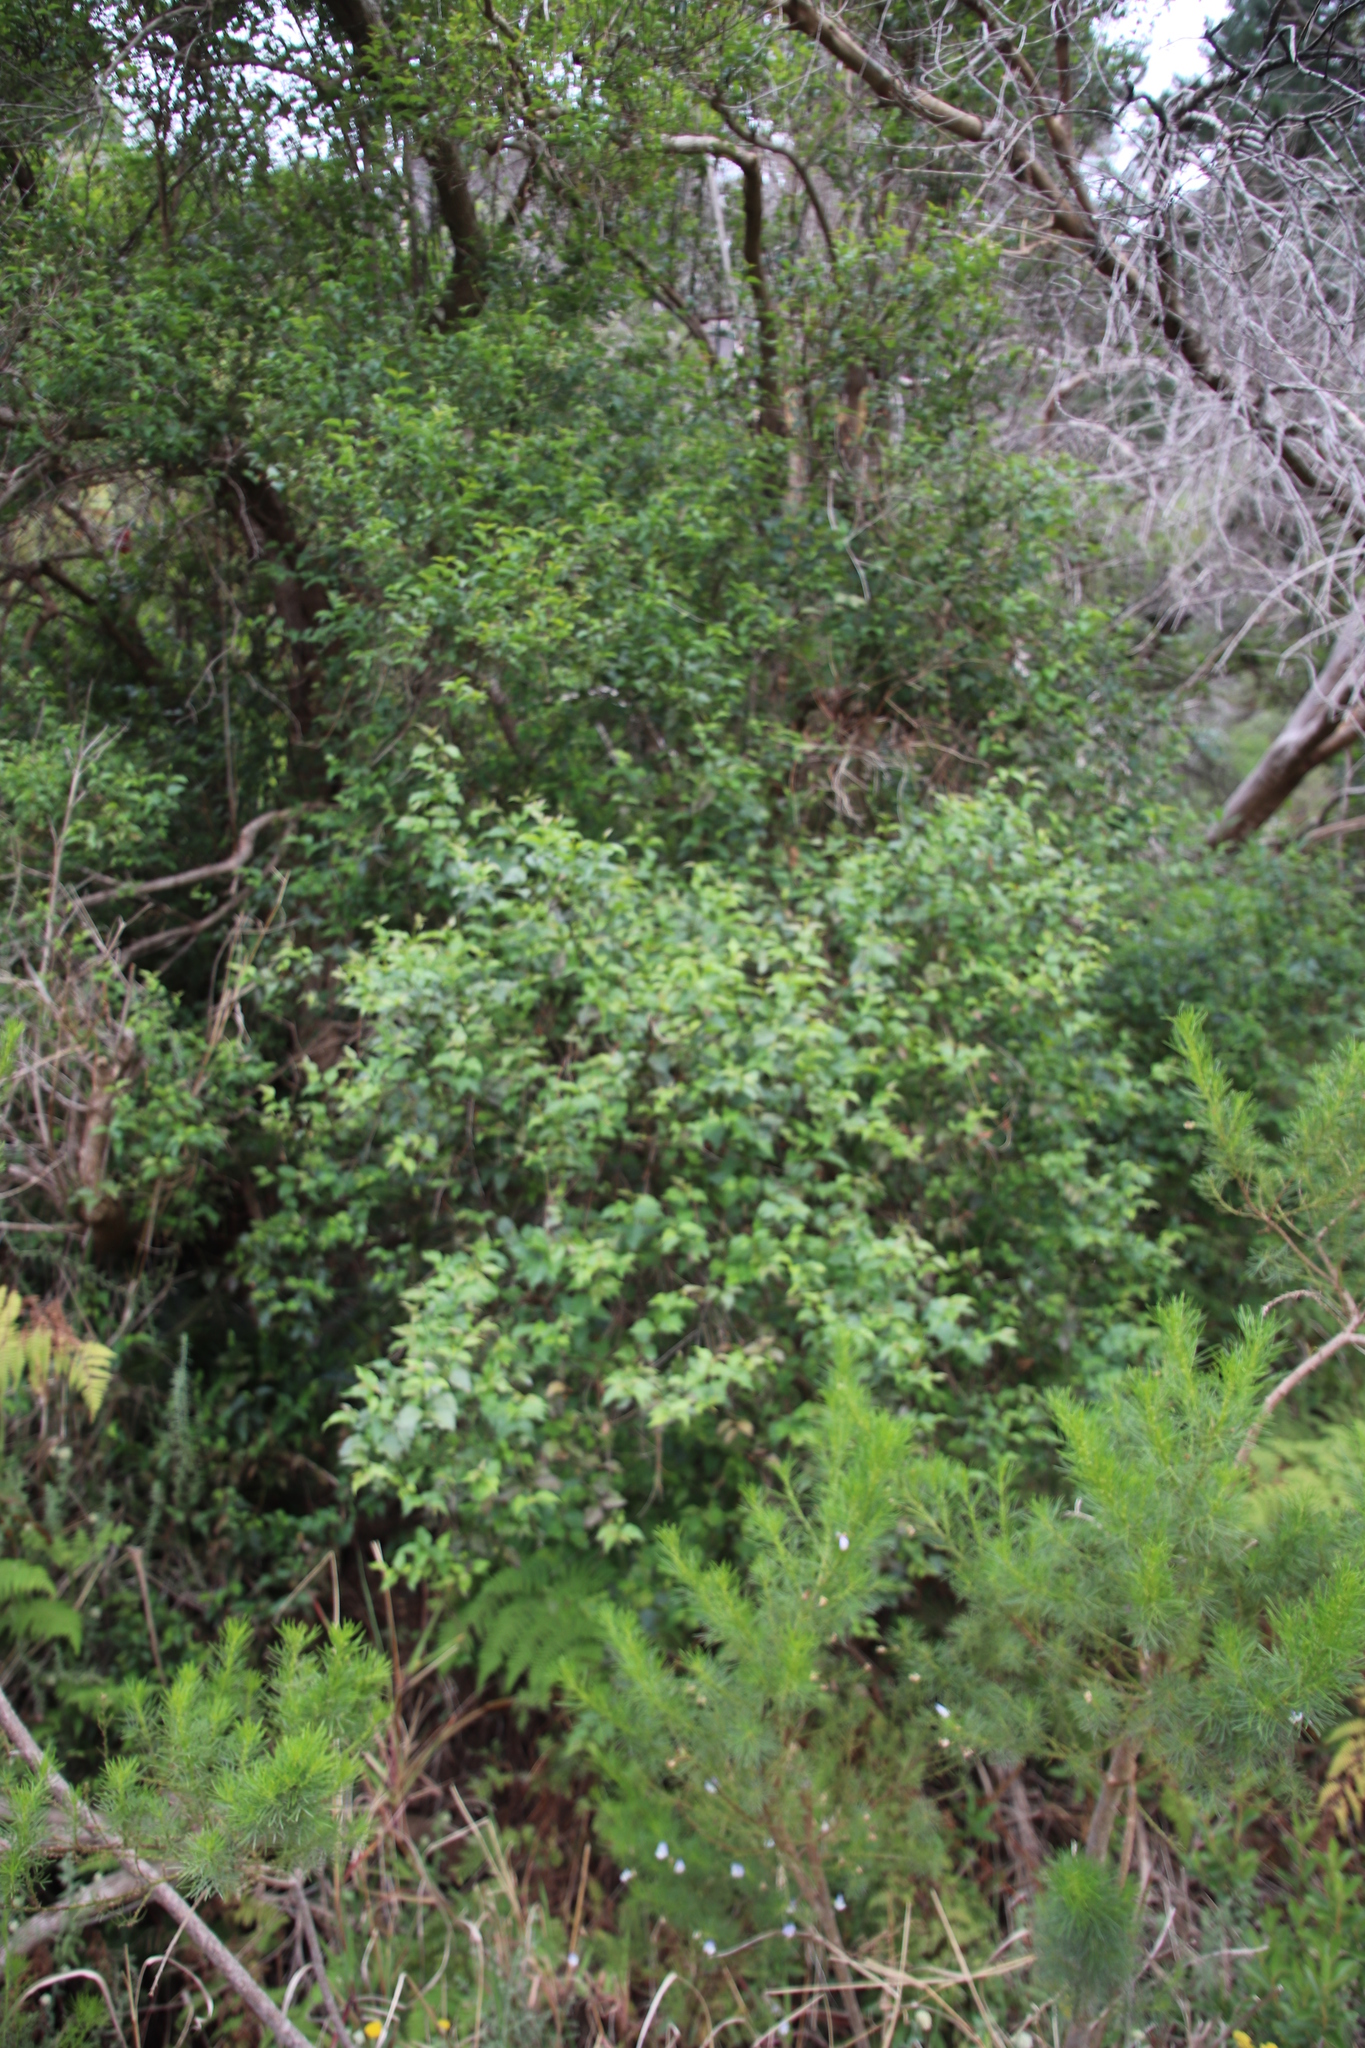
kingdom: Plantae
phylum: Tracheophyta
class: Magnoliopsida
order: Lamiales
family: Stilbaceae
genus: Halleria
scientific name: Halleria lucida
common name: Tree fuschia
